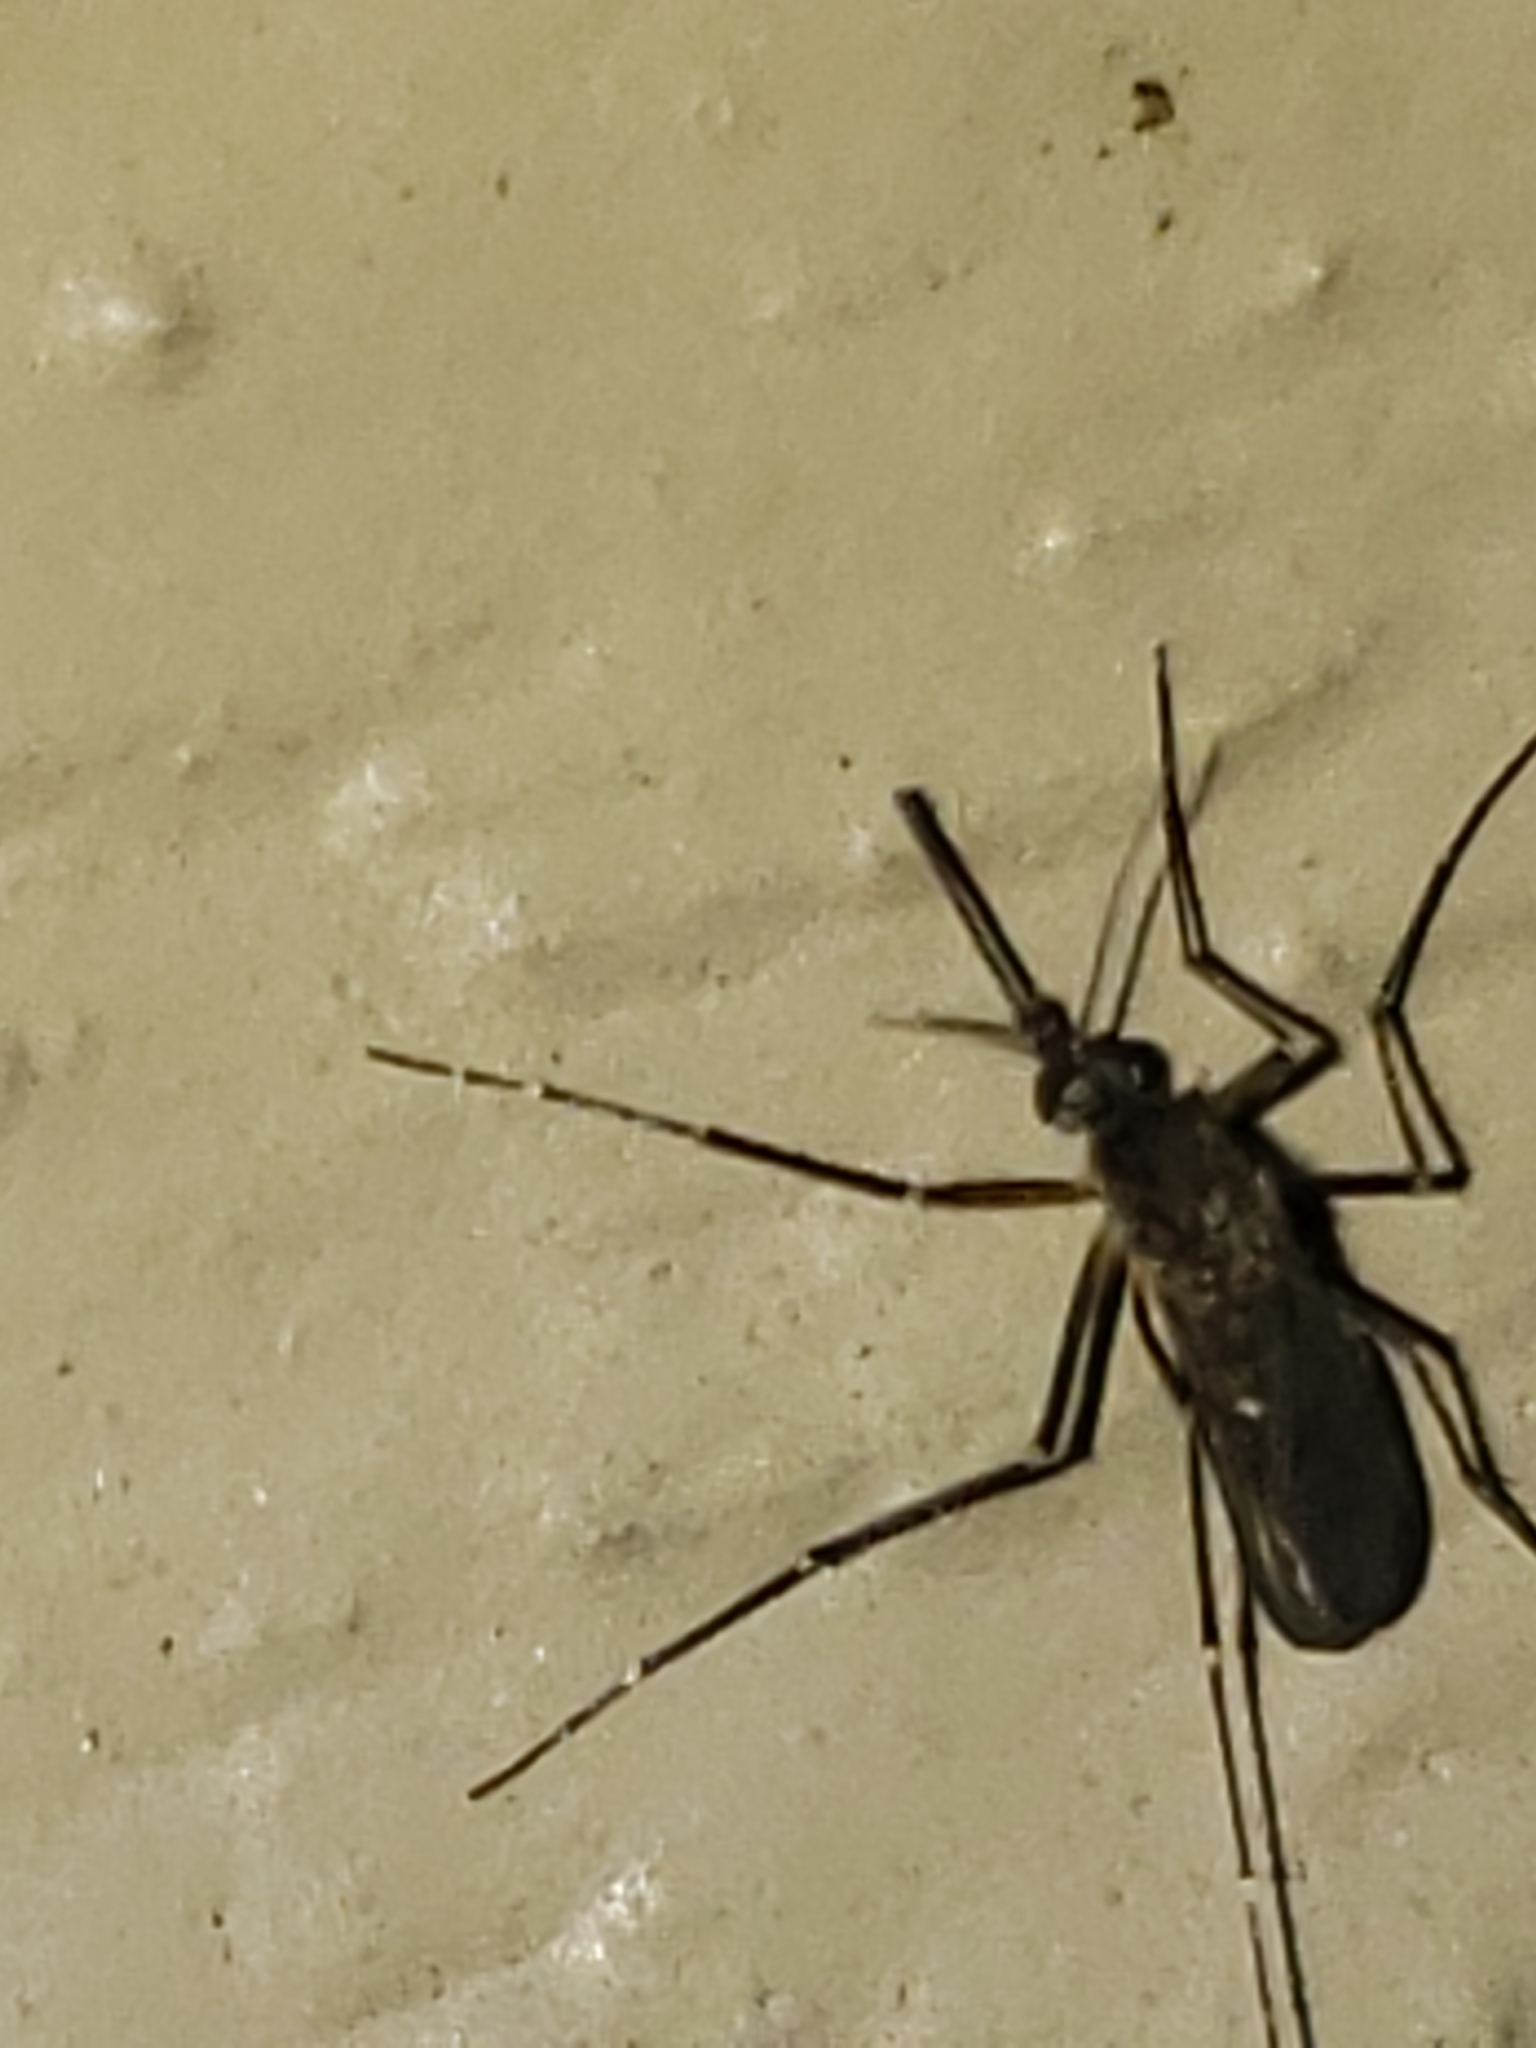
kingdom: Animalia
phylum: Arthropoda
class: Insecta
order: Diptera
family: Culicidae
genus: Aedes
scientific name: Aedes vexans
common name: Inland floodwater mosquito
